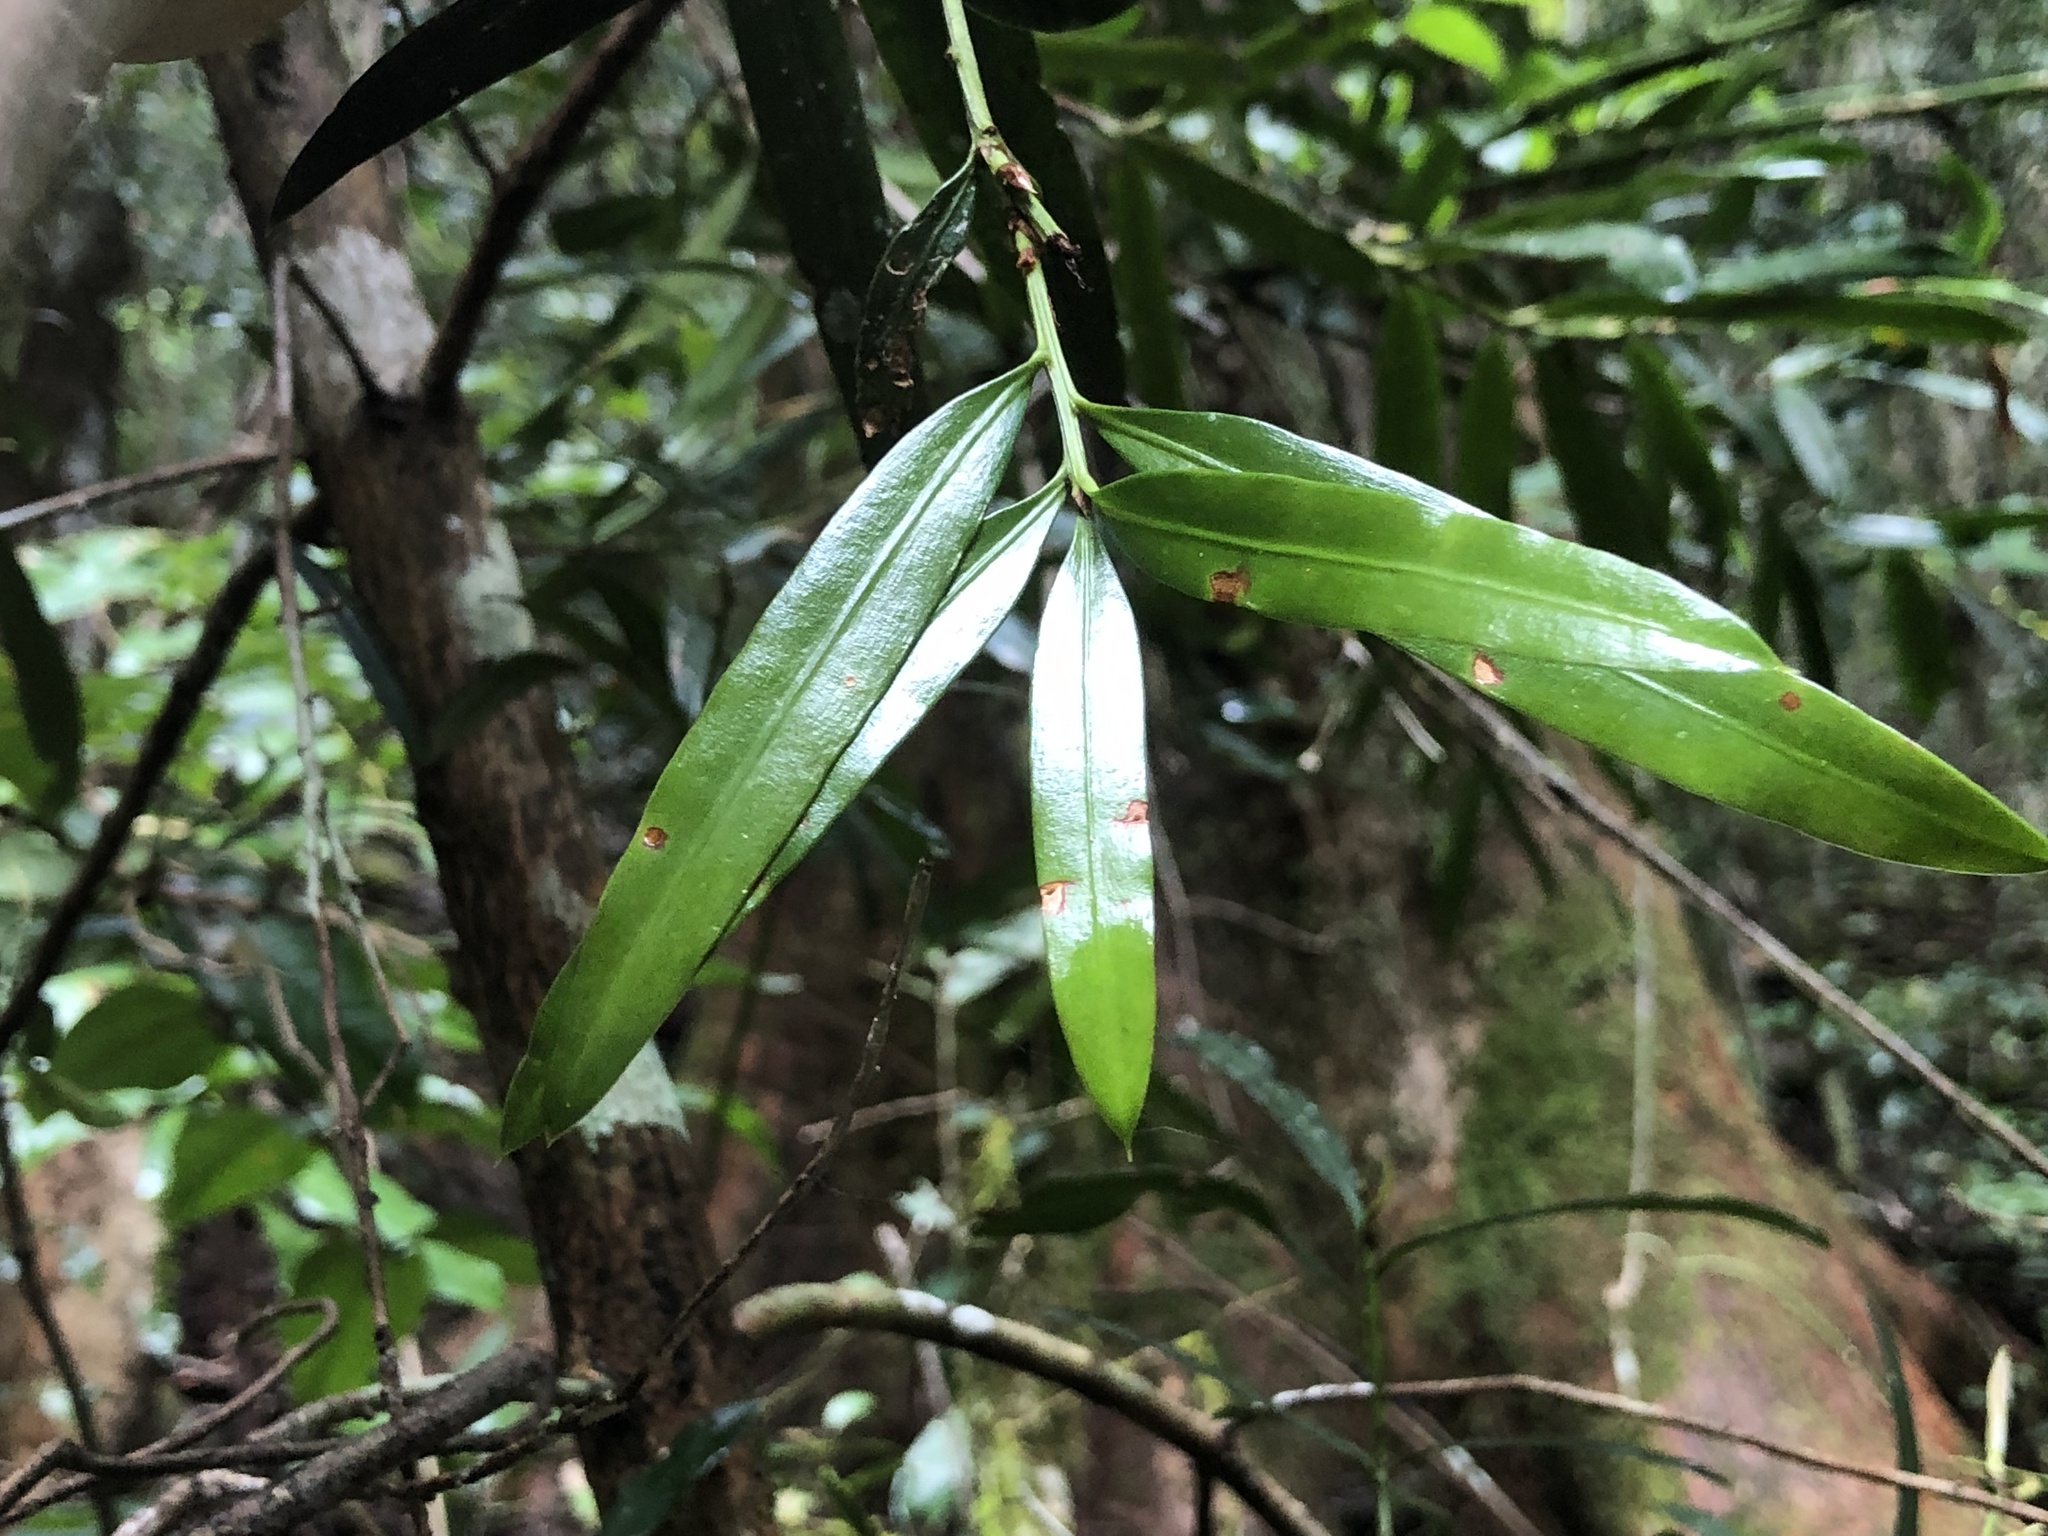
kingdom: Plantae
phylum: Tracheophyta
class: Pinopsida
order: Pinales
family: Podocarpaceae
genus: Podocarpus
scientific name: Podocarpus elatus
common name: Plum pine
